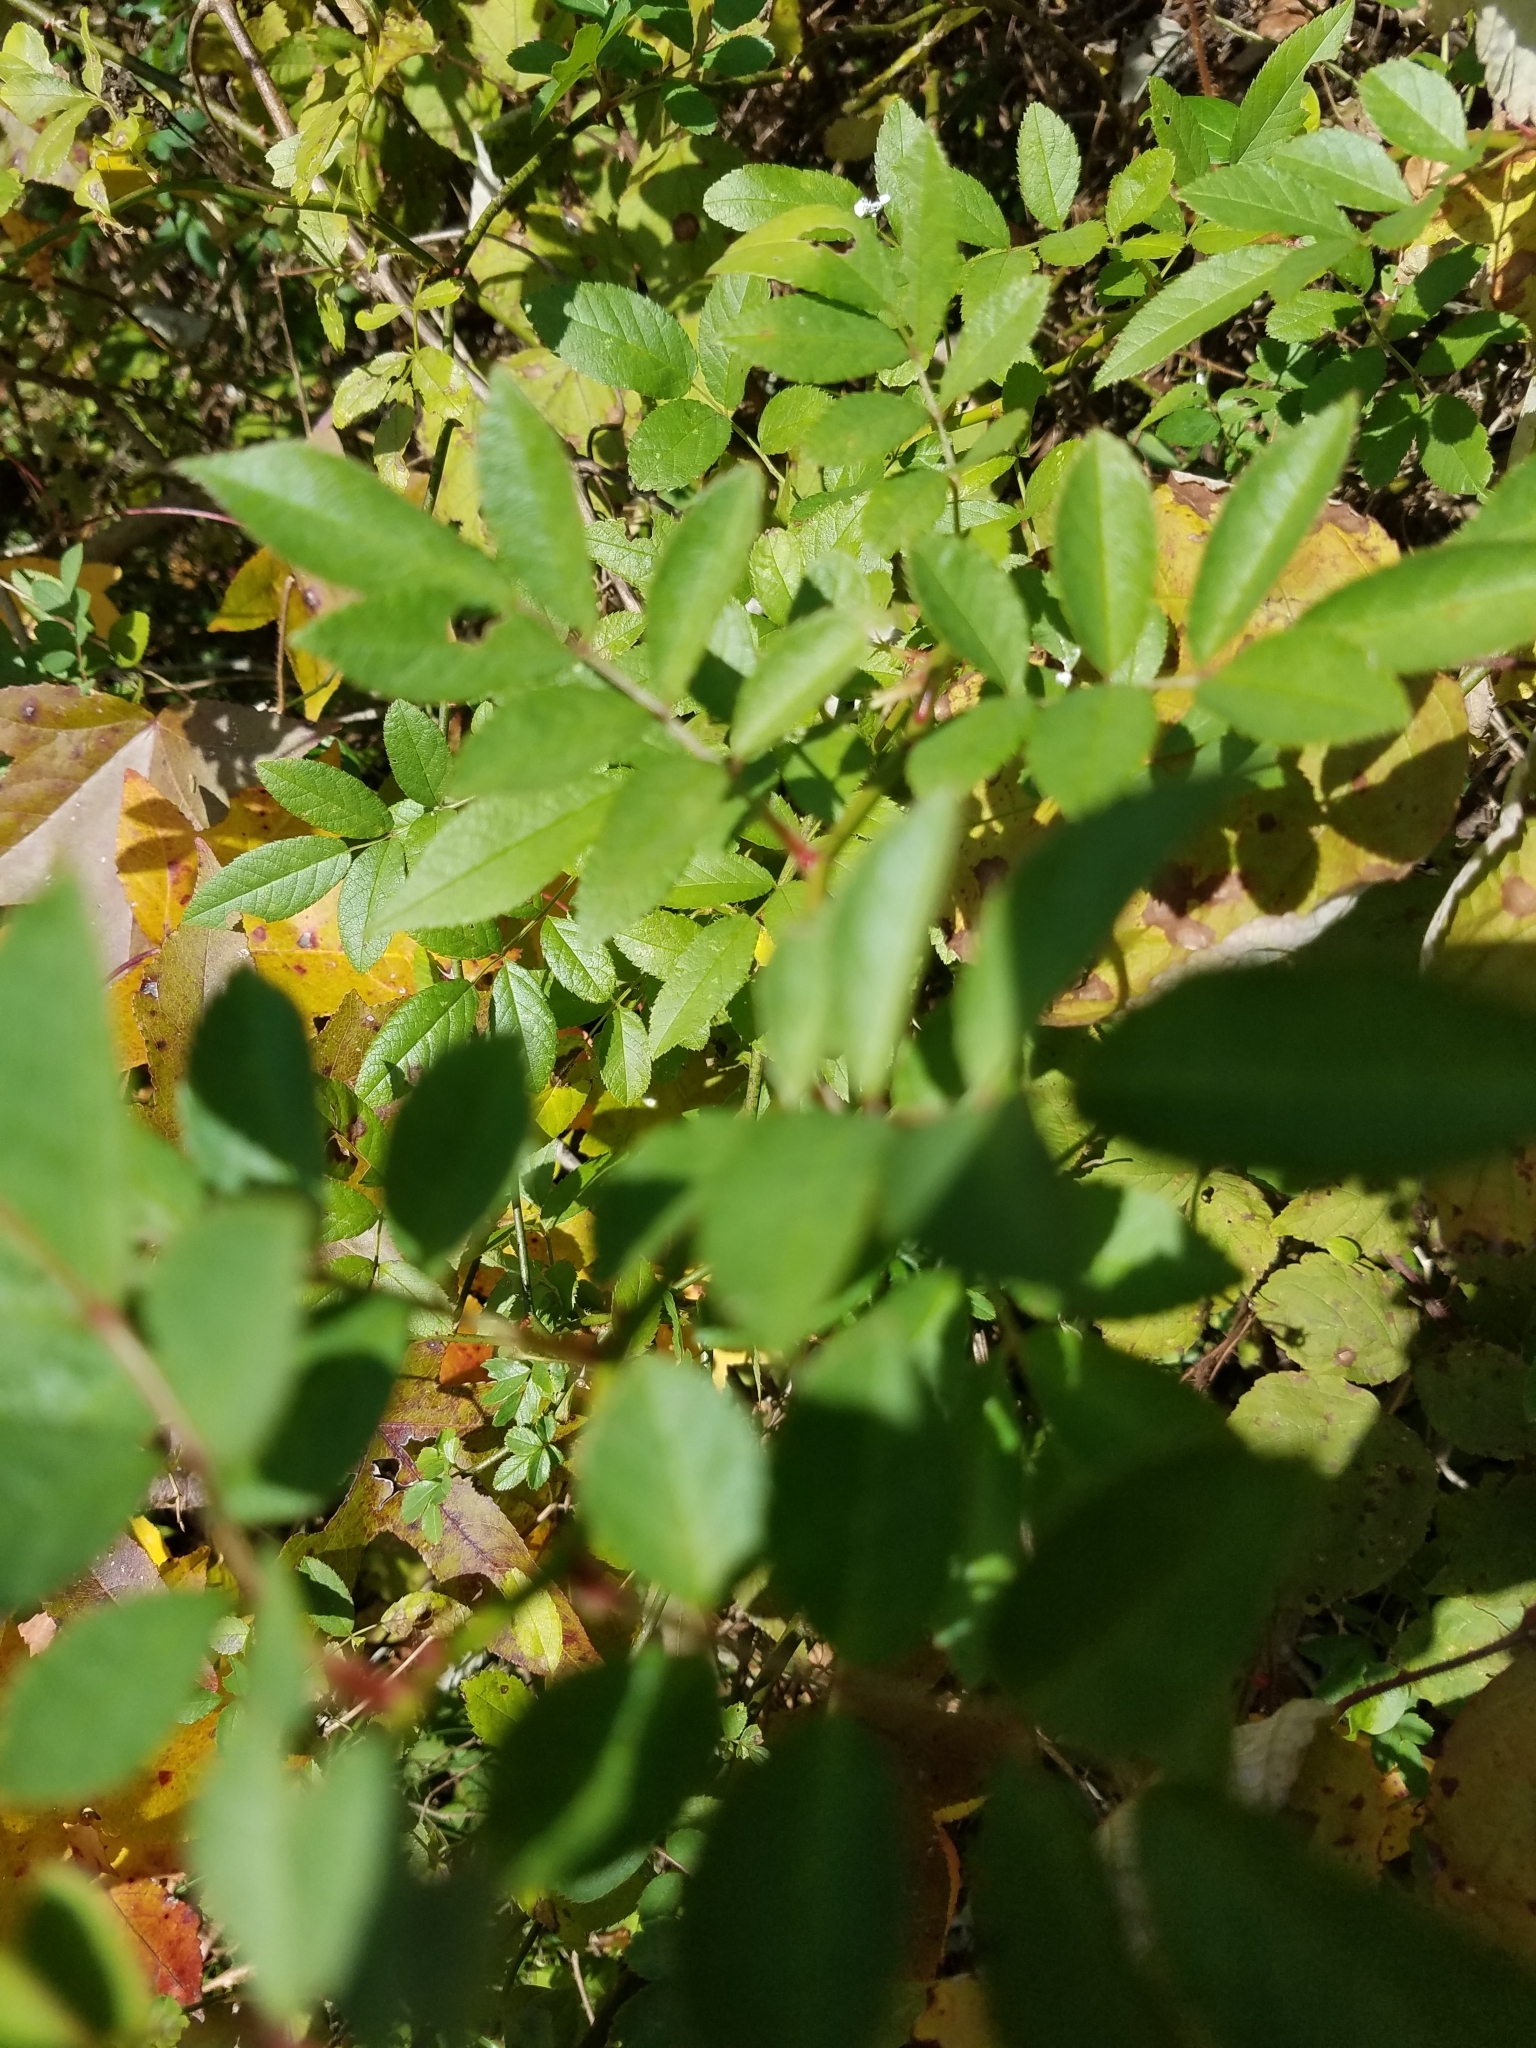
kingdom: Plantae
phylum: Tracheophyta
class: Magnoliopsida
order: Rosales
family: Rosaceae
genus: Rosa
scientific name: Rosa multiflora
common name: Multiflora rose
